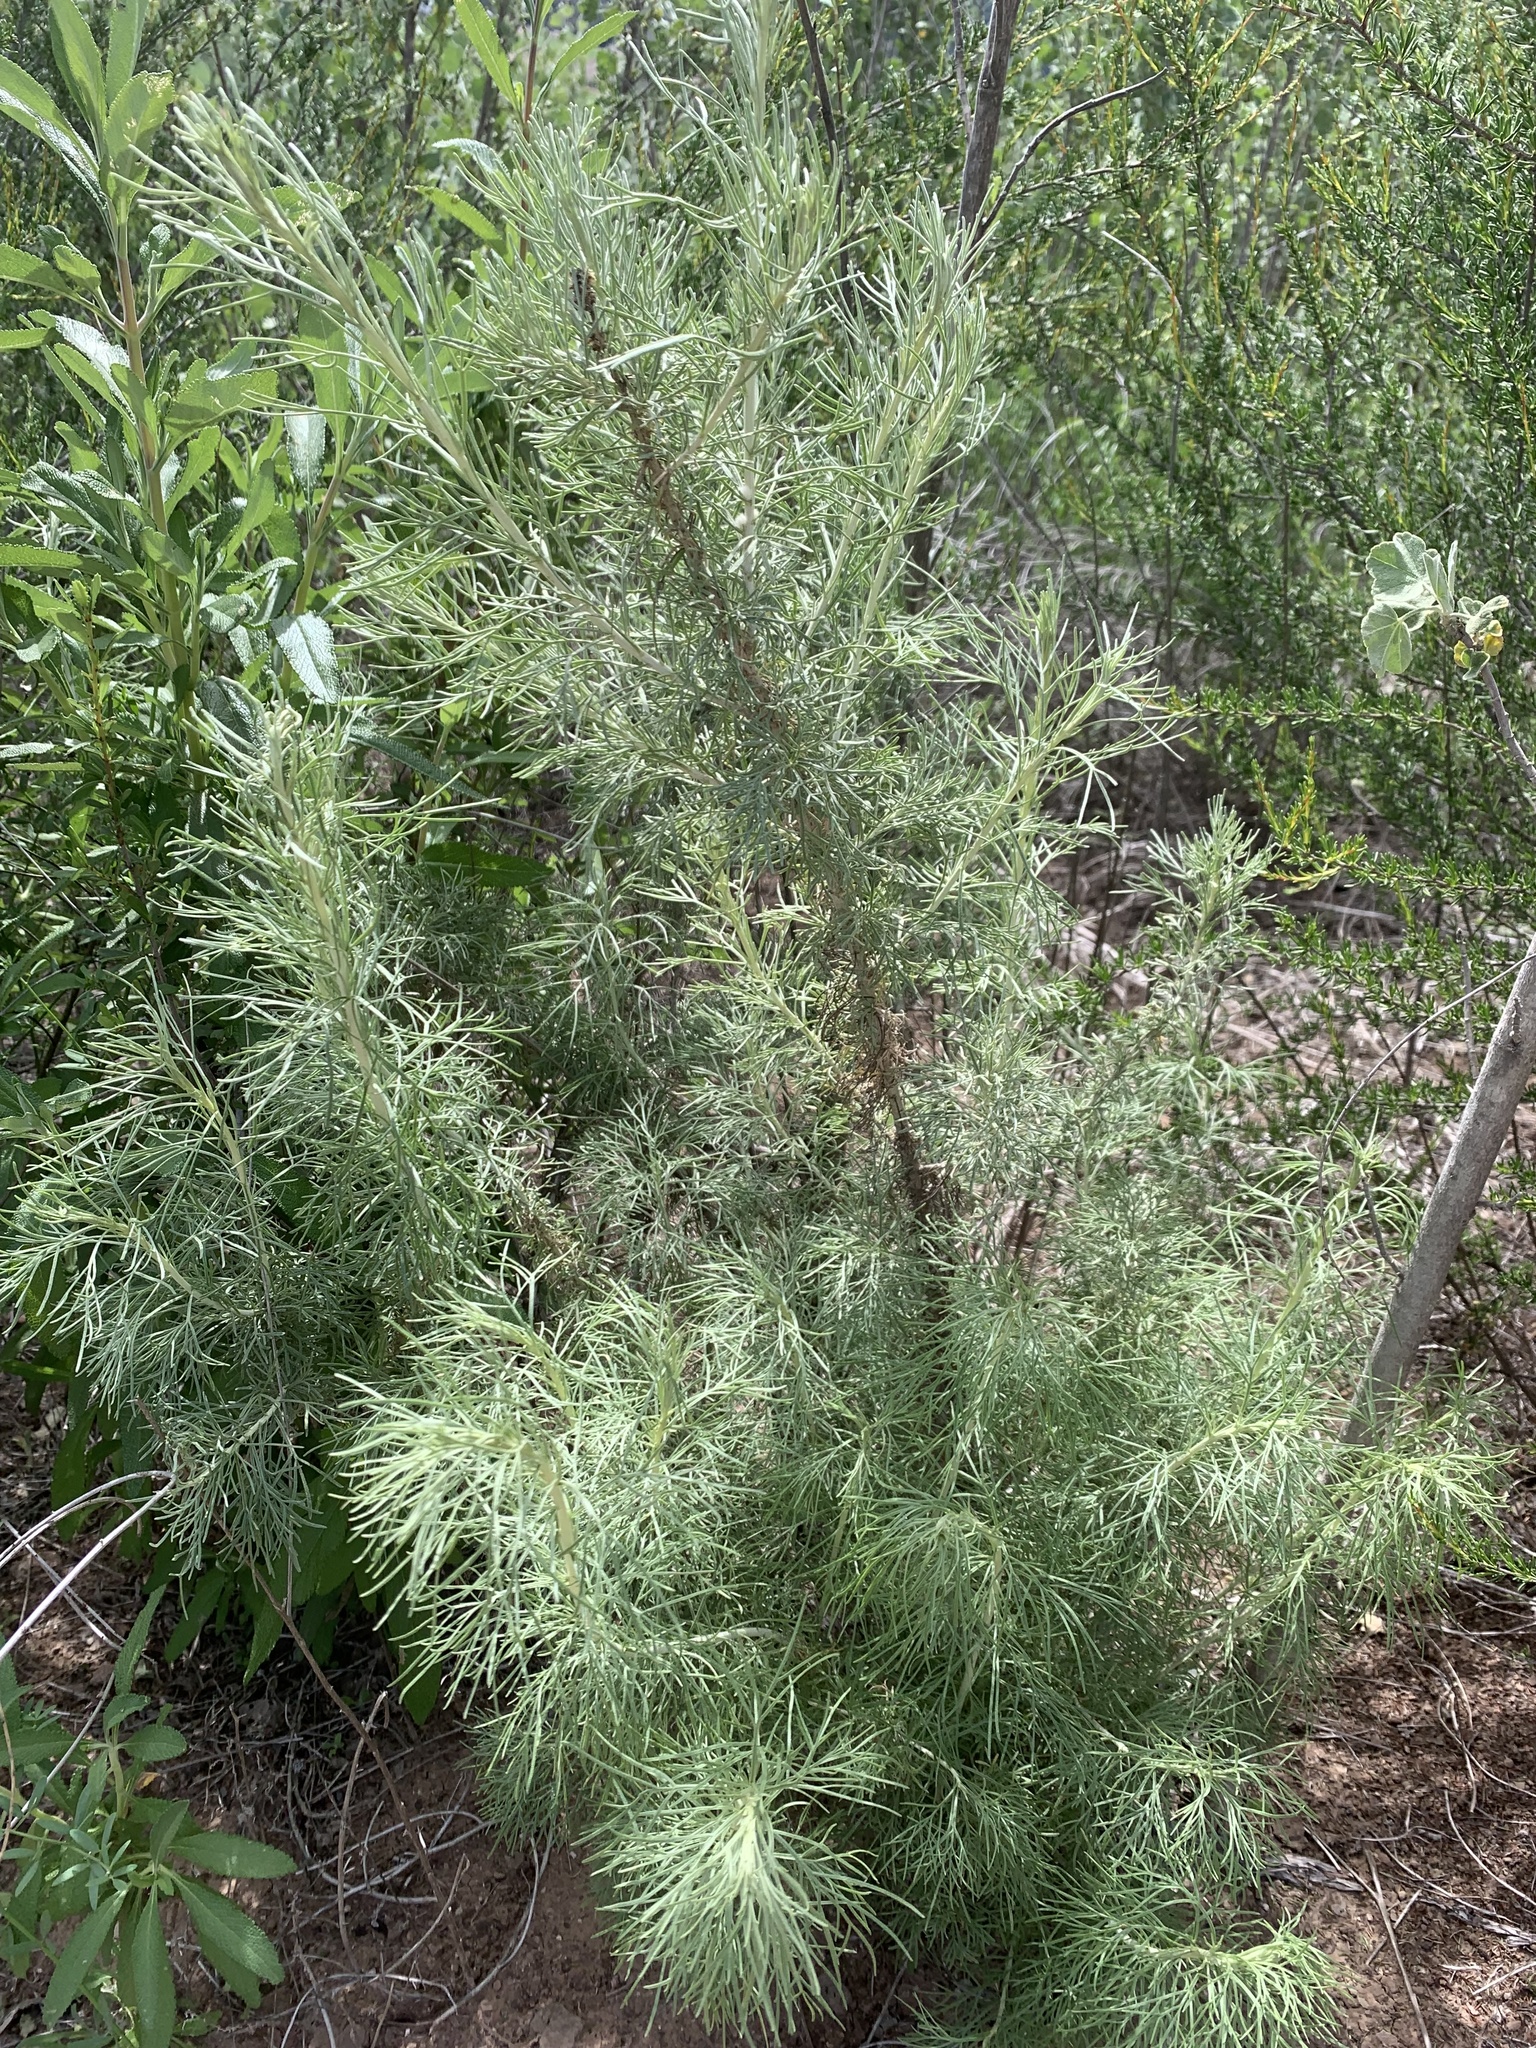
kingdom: Plantae
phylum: Tracheophyta
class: Magnoliopsida
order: Asterales
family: Asteraceae
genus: Artemisia
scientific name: Artemisia californica
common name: California sagebrush
